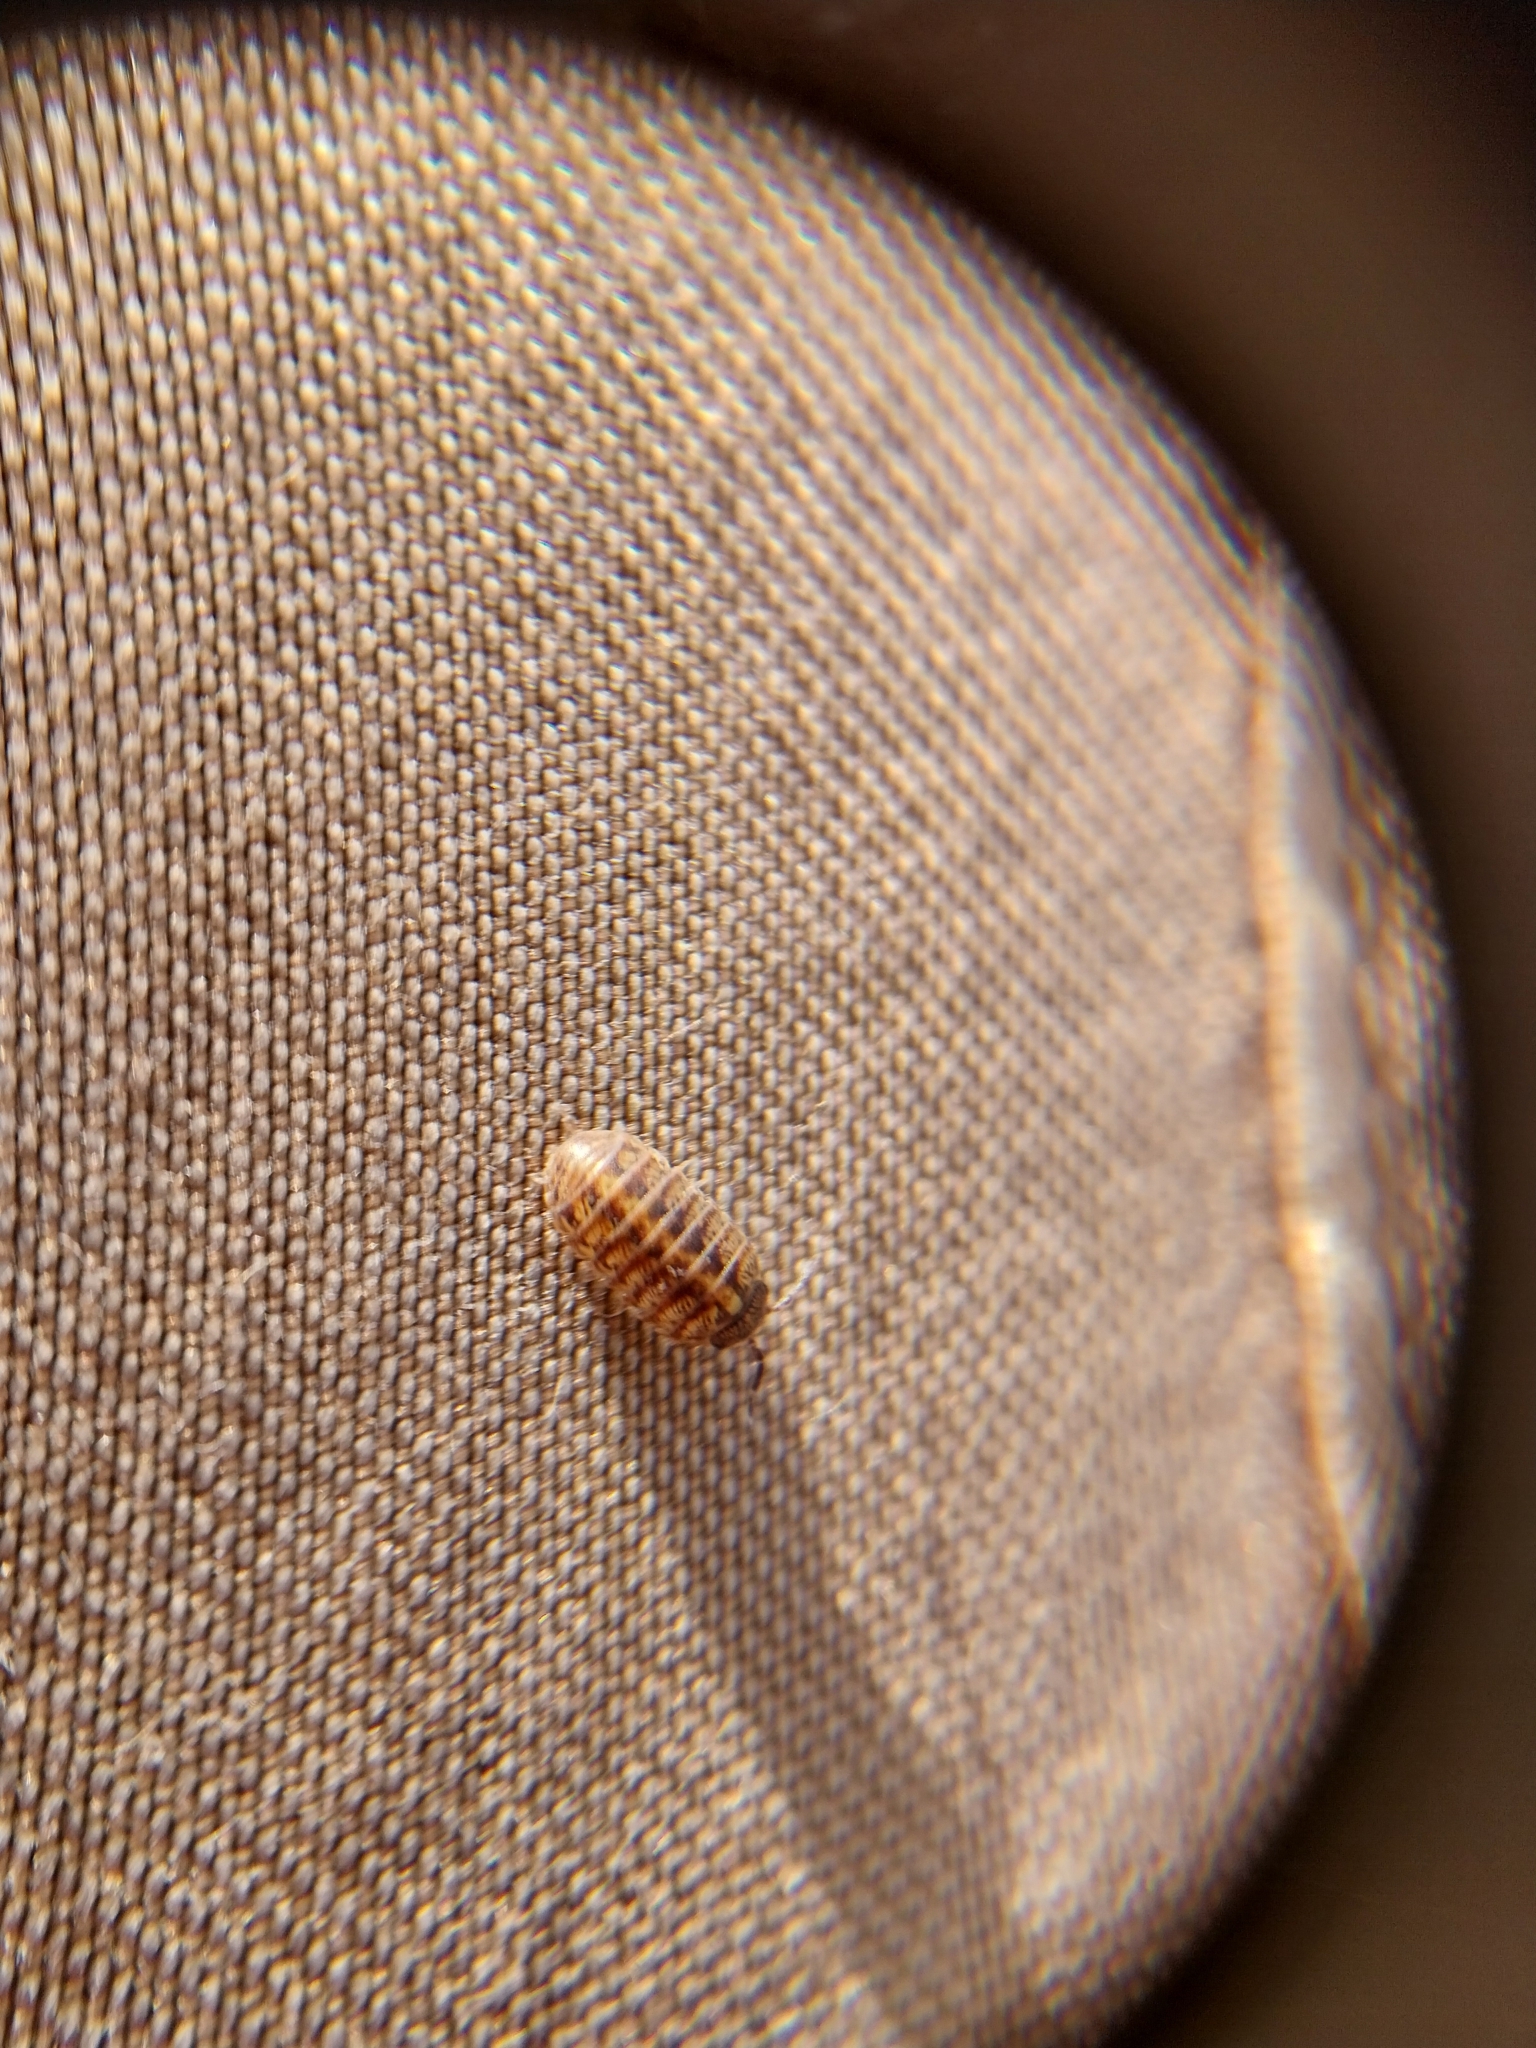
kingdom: Animalia
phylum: Arthropoda
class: Malacostraca
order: Isopoda
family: Armadillidiidae
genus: Armadillidium
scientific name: Armadillidium vulgare
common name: Common pill woodlouse
